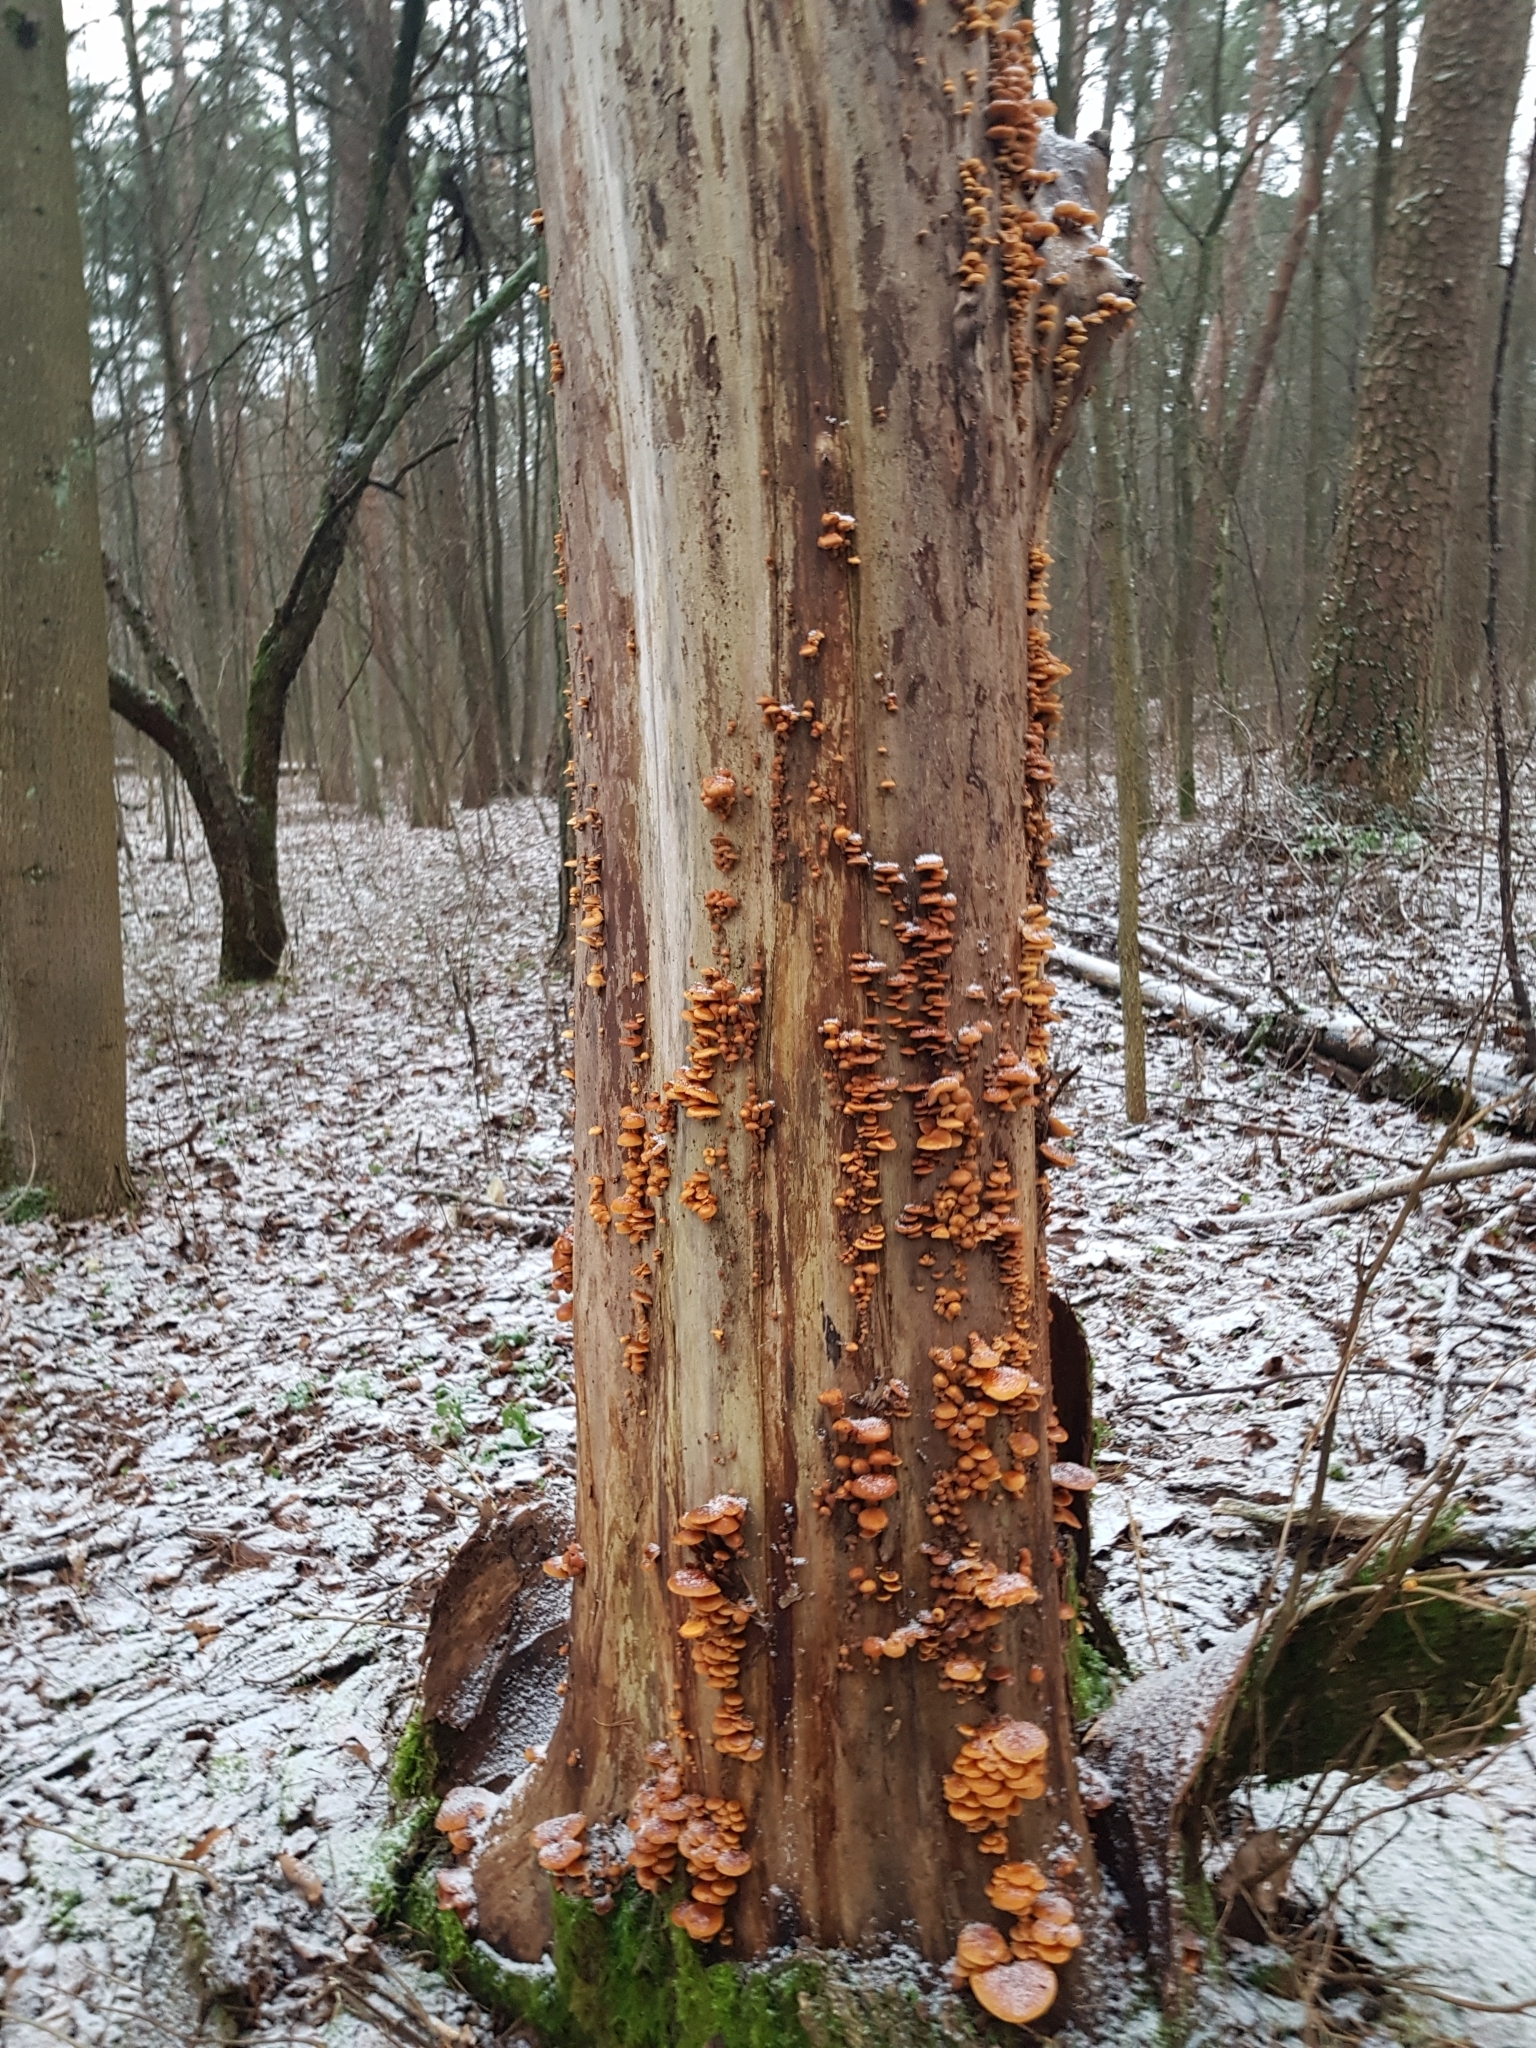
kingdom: Fungi
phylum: Basidiomycota
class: Agaricomycetes
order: Agaricales
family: Physalacriaceae
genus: Flammulina
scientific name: Flammulina
